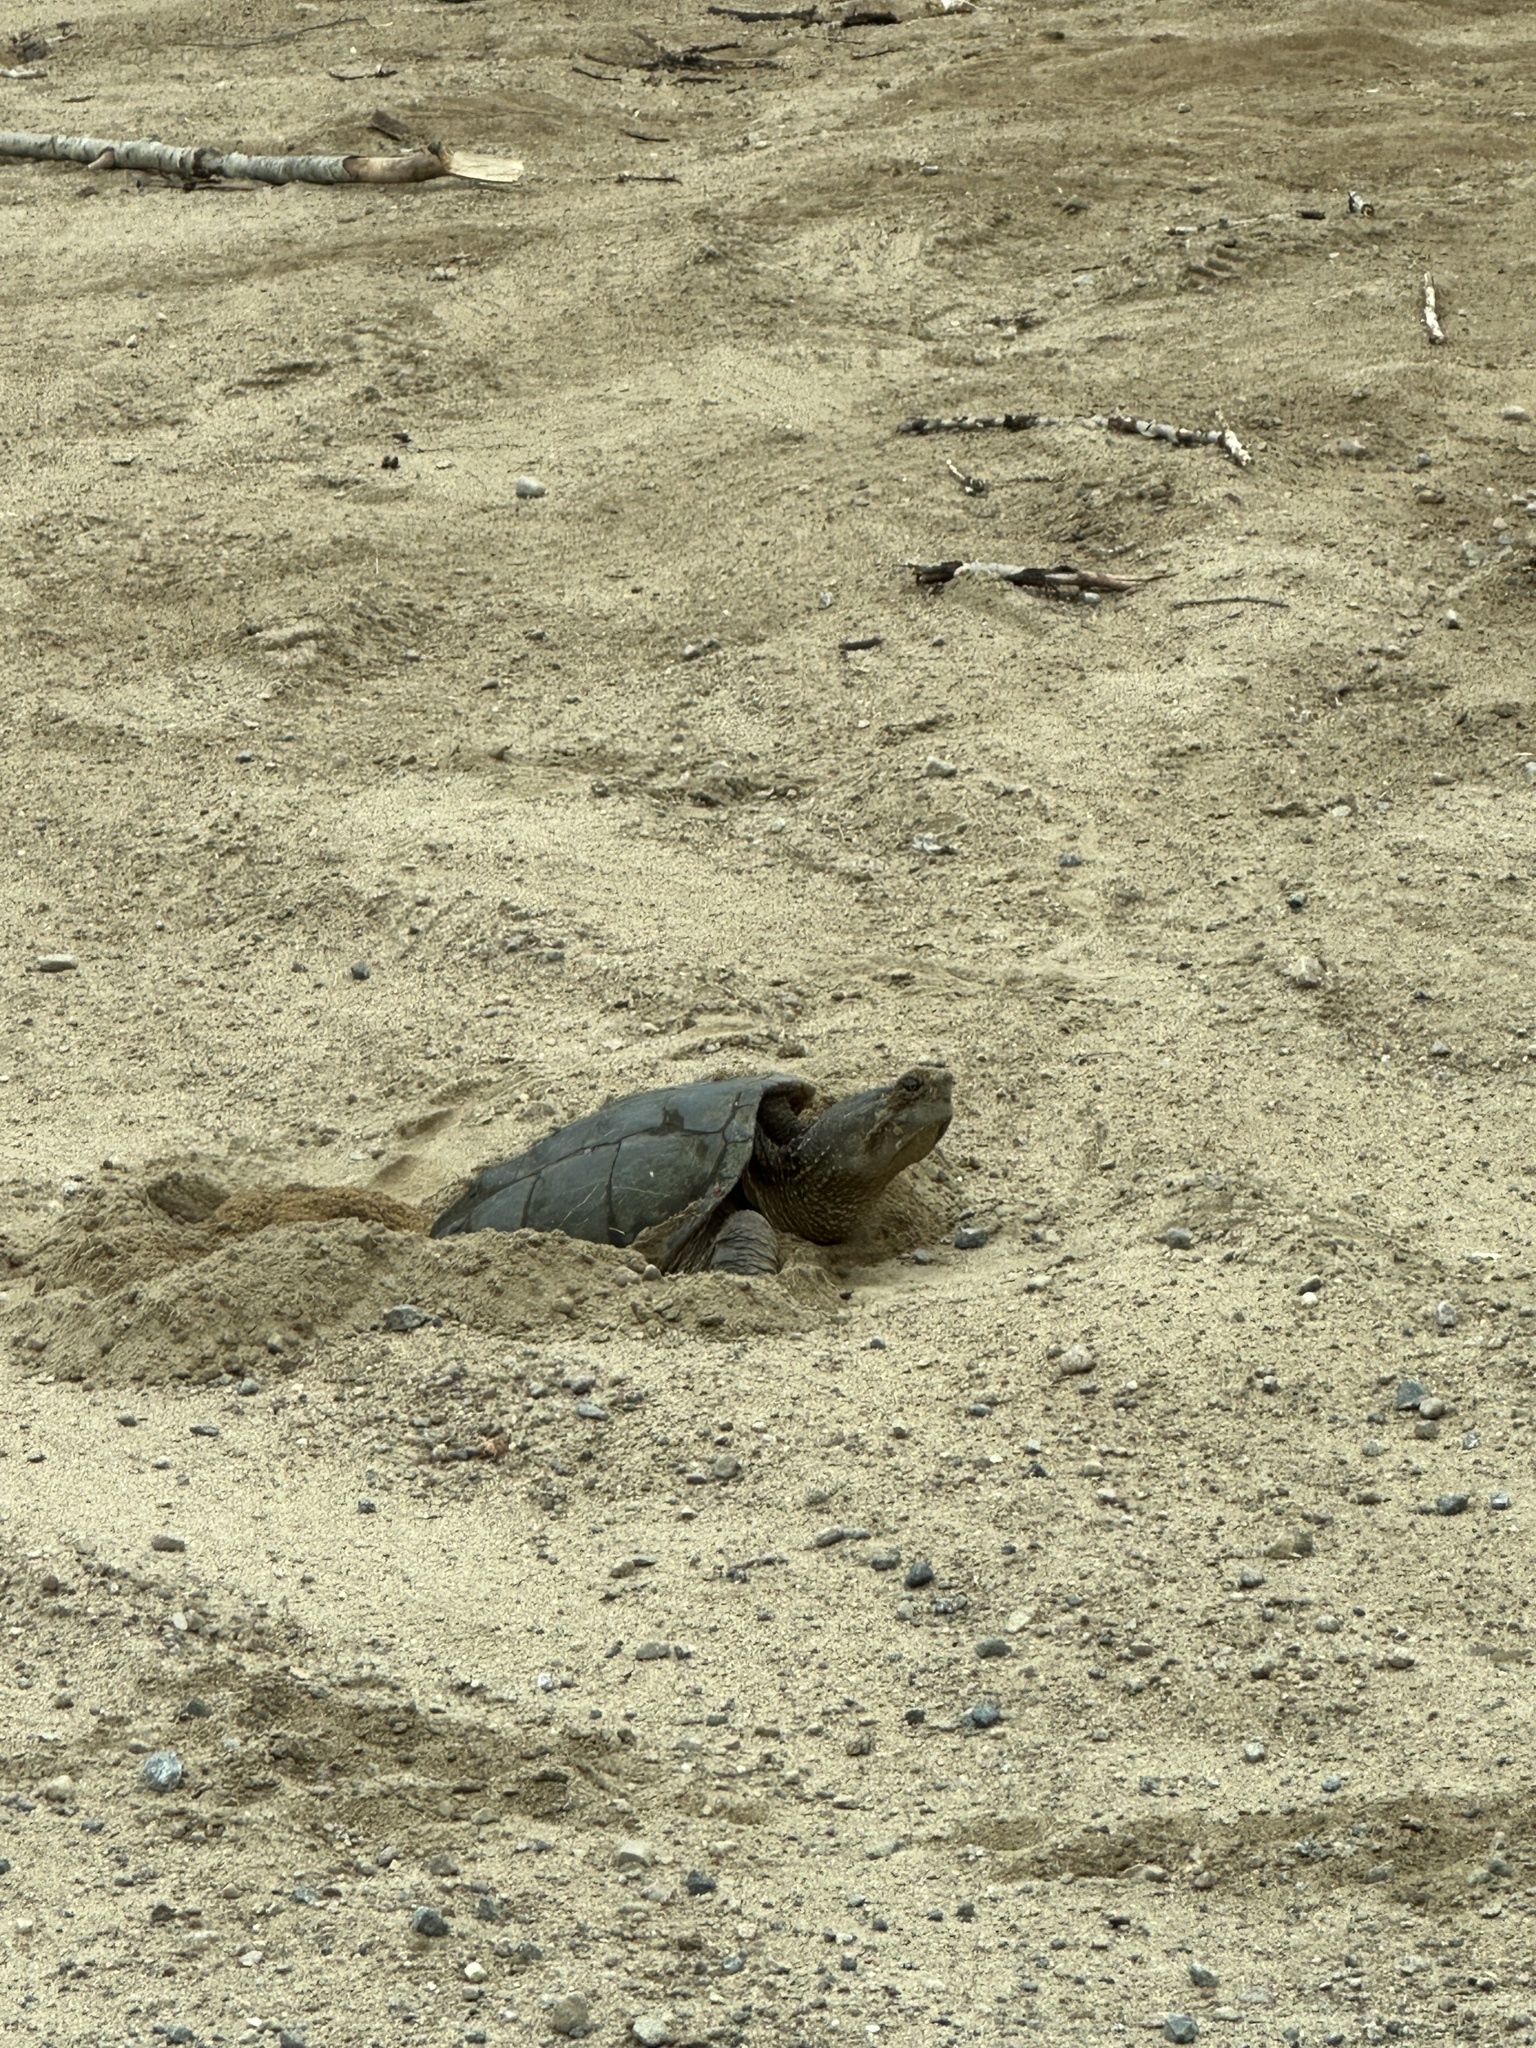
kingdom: Animalia
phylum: Chordata
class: Testudines
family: Chelydridae
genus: Chelydra
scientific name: Chelydra serpentina
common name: Common snapping turtle
